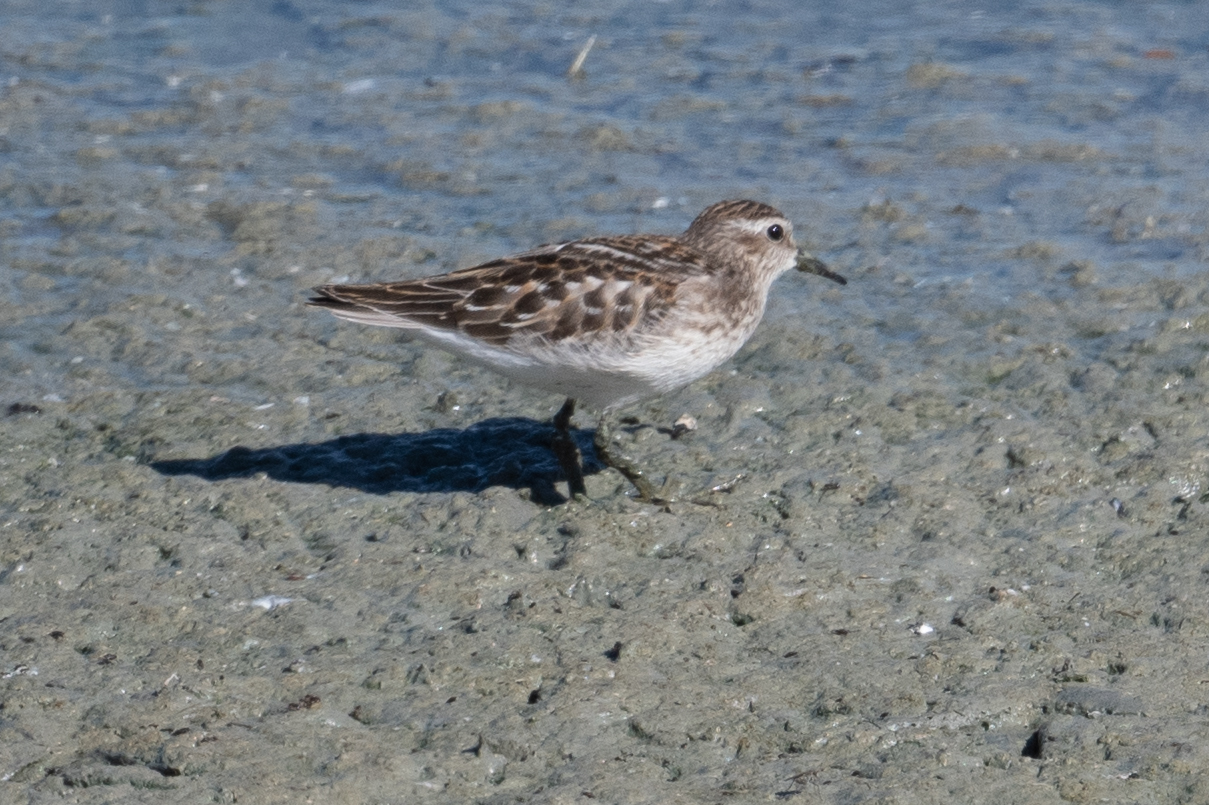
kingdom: Animalia
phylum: Chordata
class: Aves
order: Charadriiformes
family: Scolopacidae
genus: Calidris
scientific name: Calidris minutilla
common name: Least sandpiper
